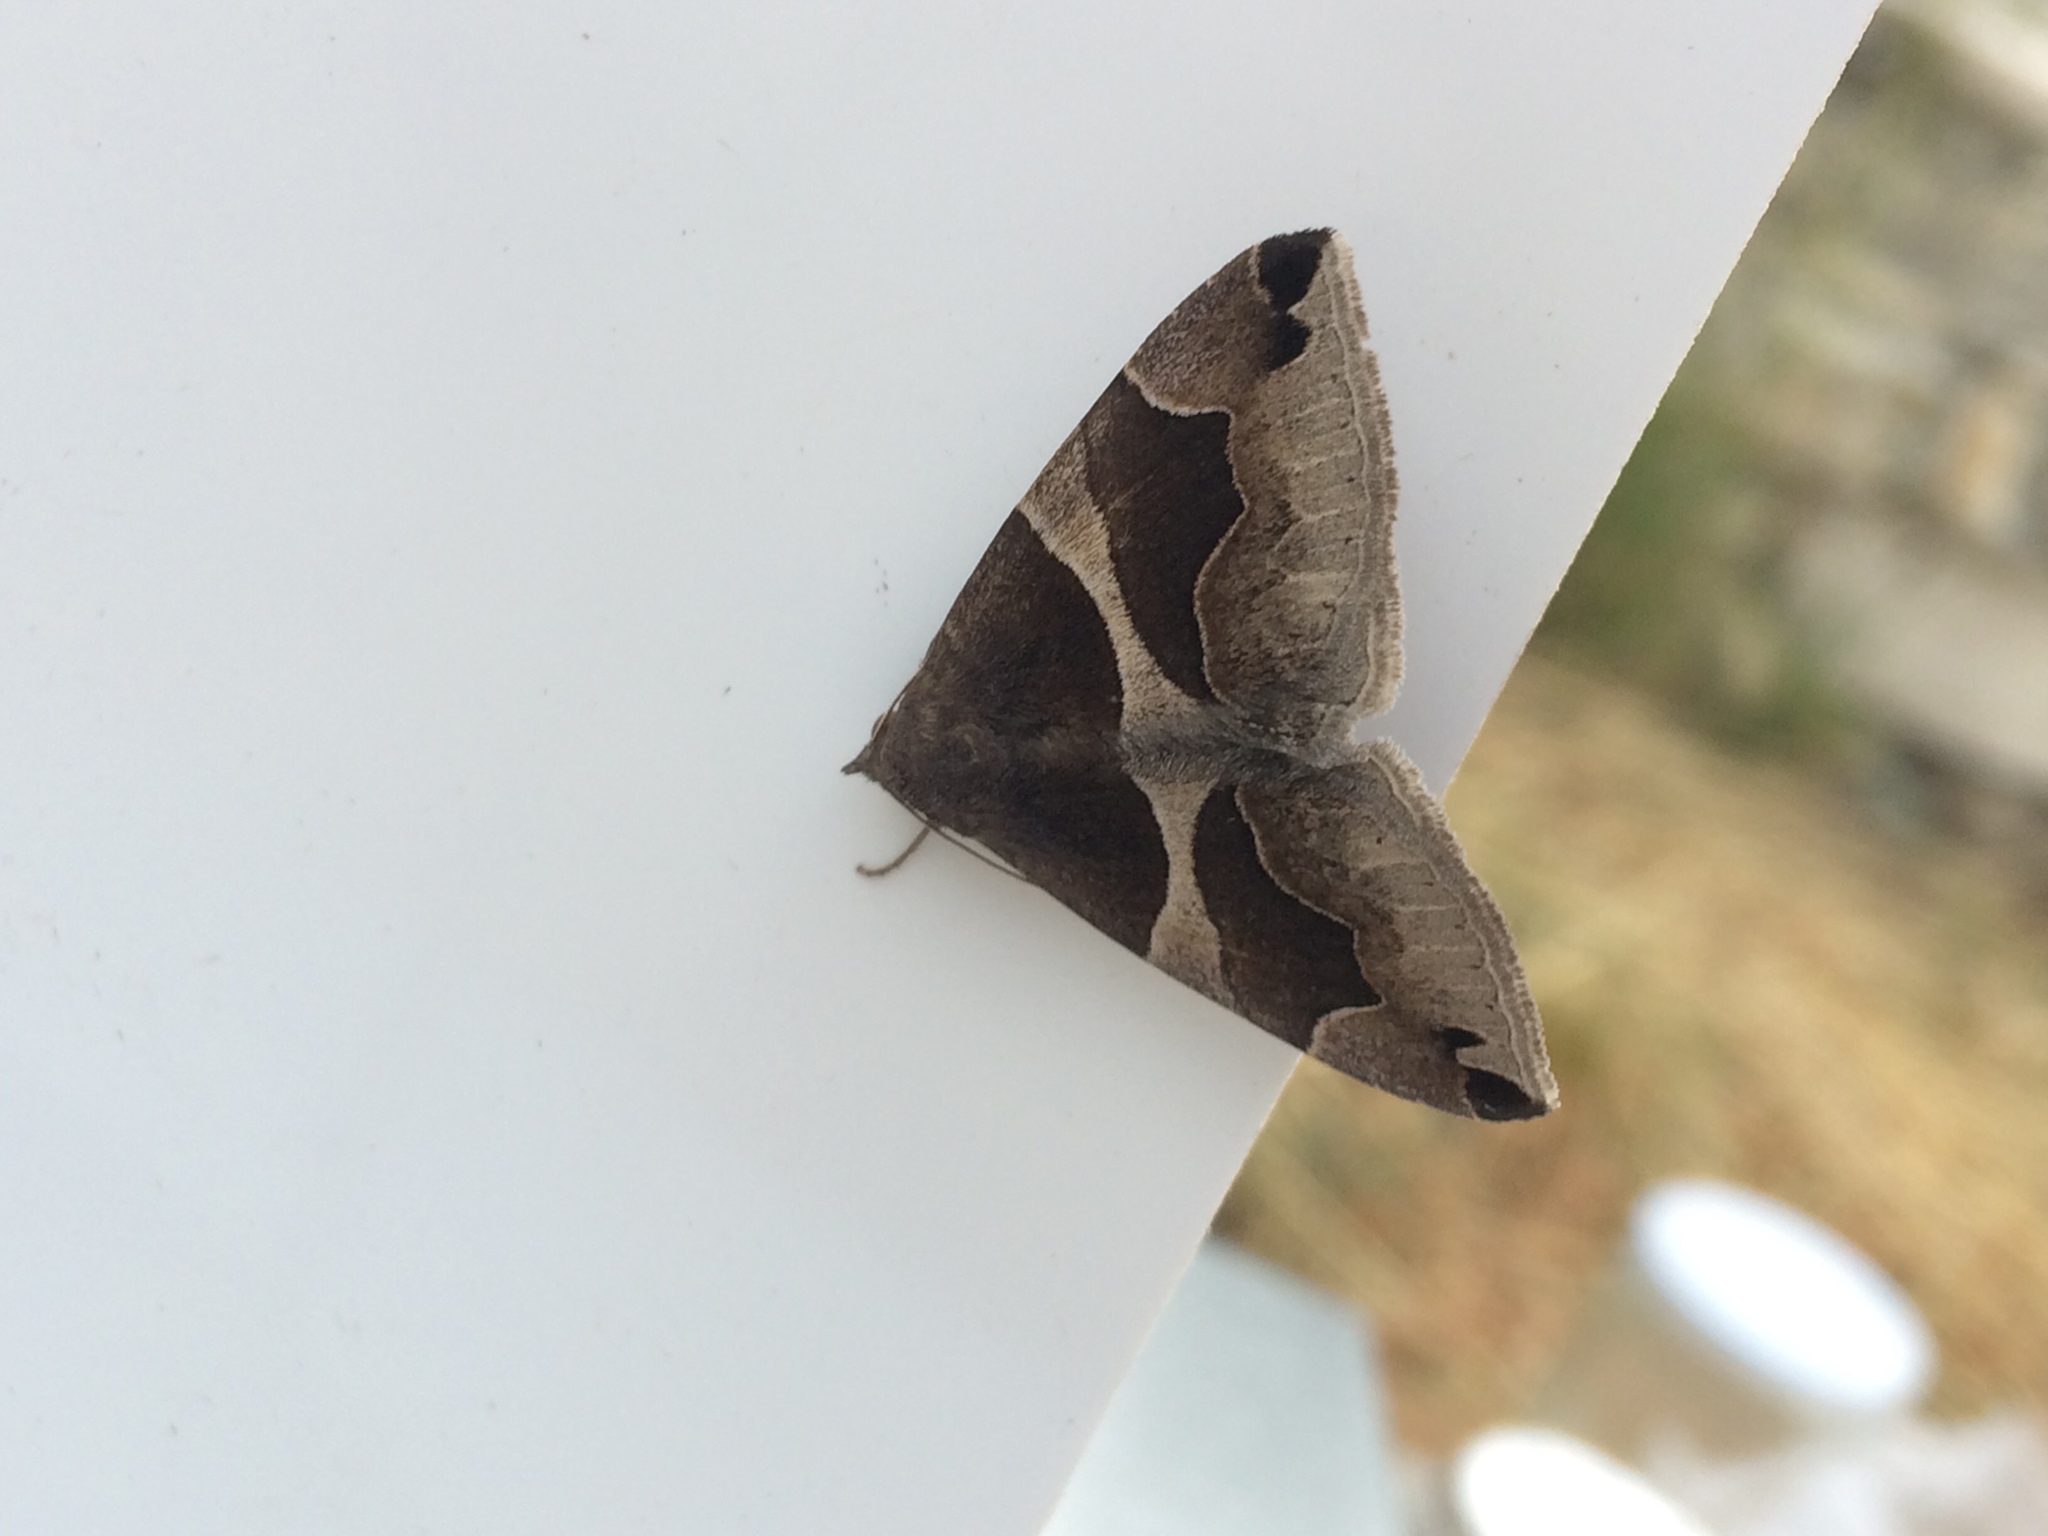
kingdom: Animalia
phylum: Arthropoda
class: Insecta
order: Lepidoptera
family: Erebidae
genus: Dysgonia
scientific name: Dysgonia algira
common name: Passenger
